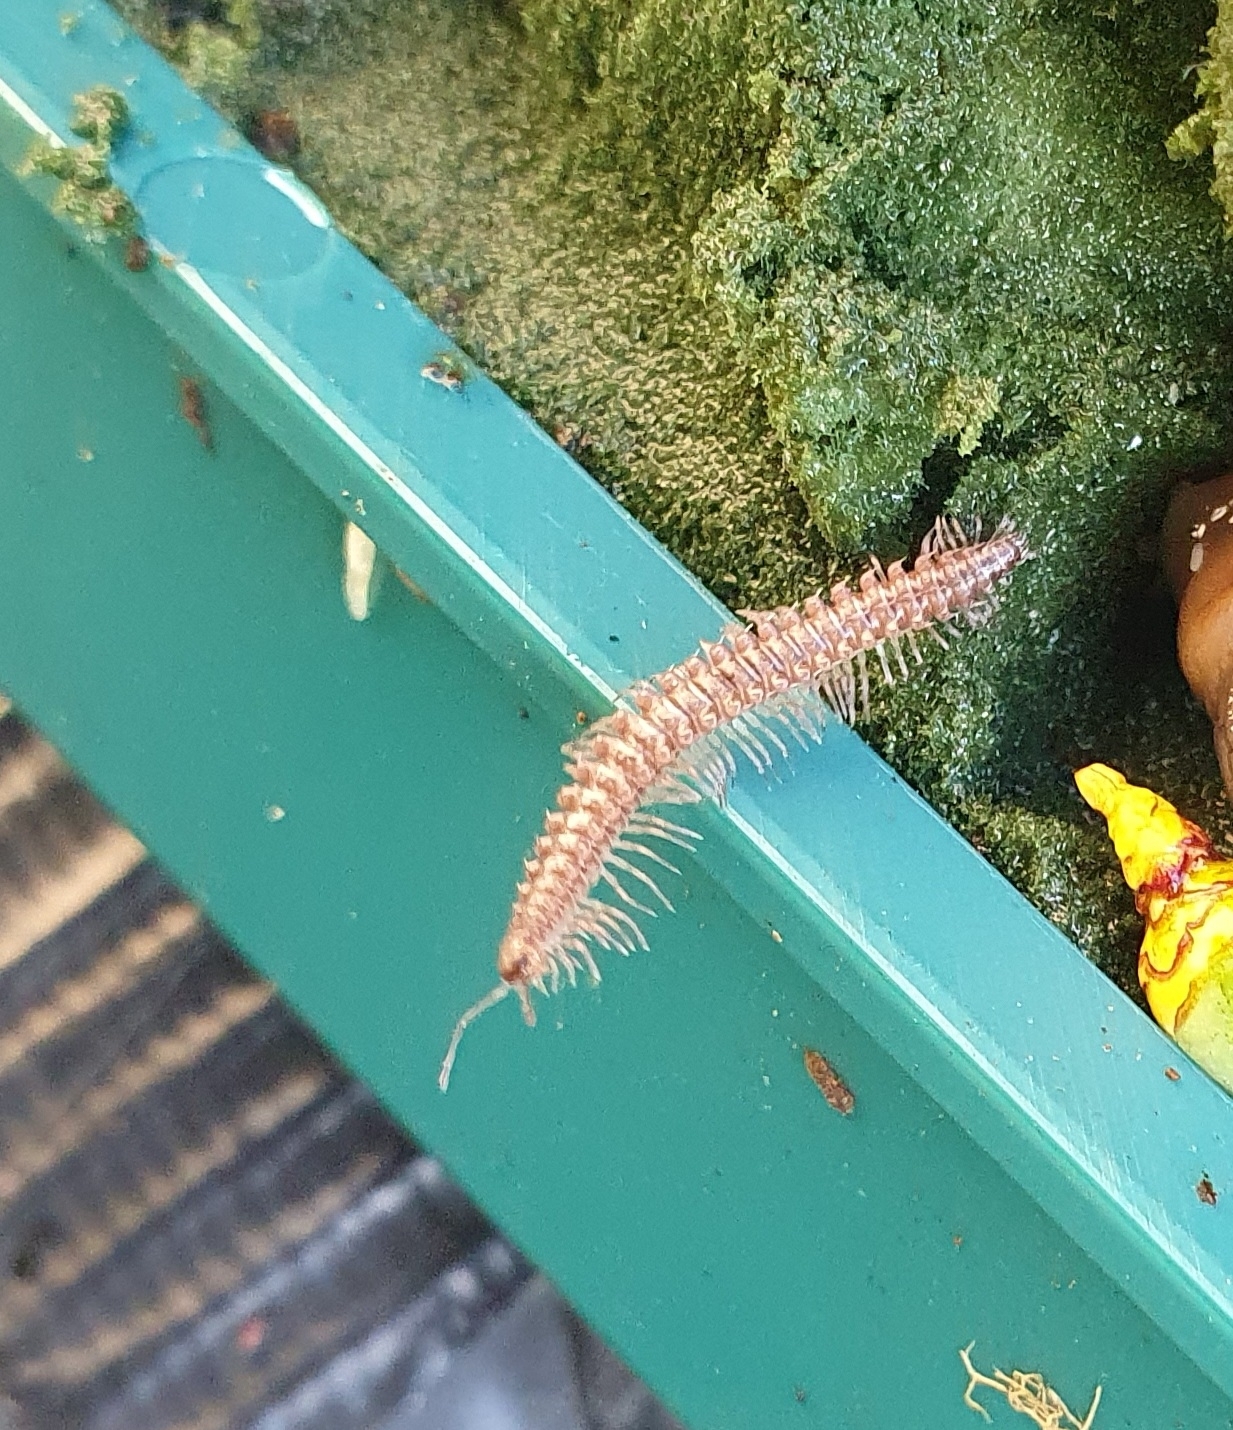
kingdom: Animalia
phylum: Arthropoda
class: Diplopoda
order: Chordeumatida
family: Craspedosomatidae
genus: Nanogona
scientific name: Nanogona polydesmoides
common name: Eyed flat-backed millipede
